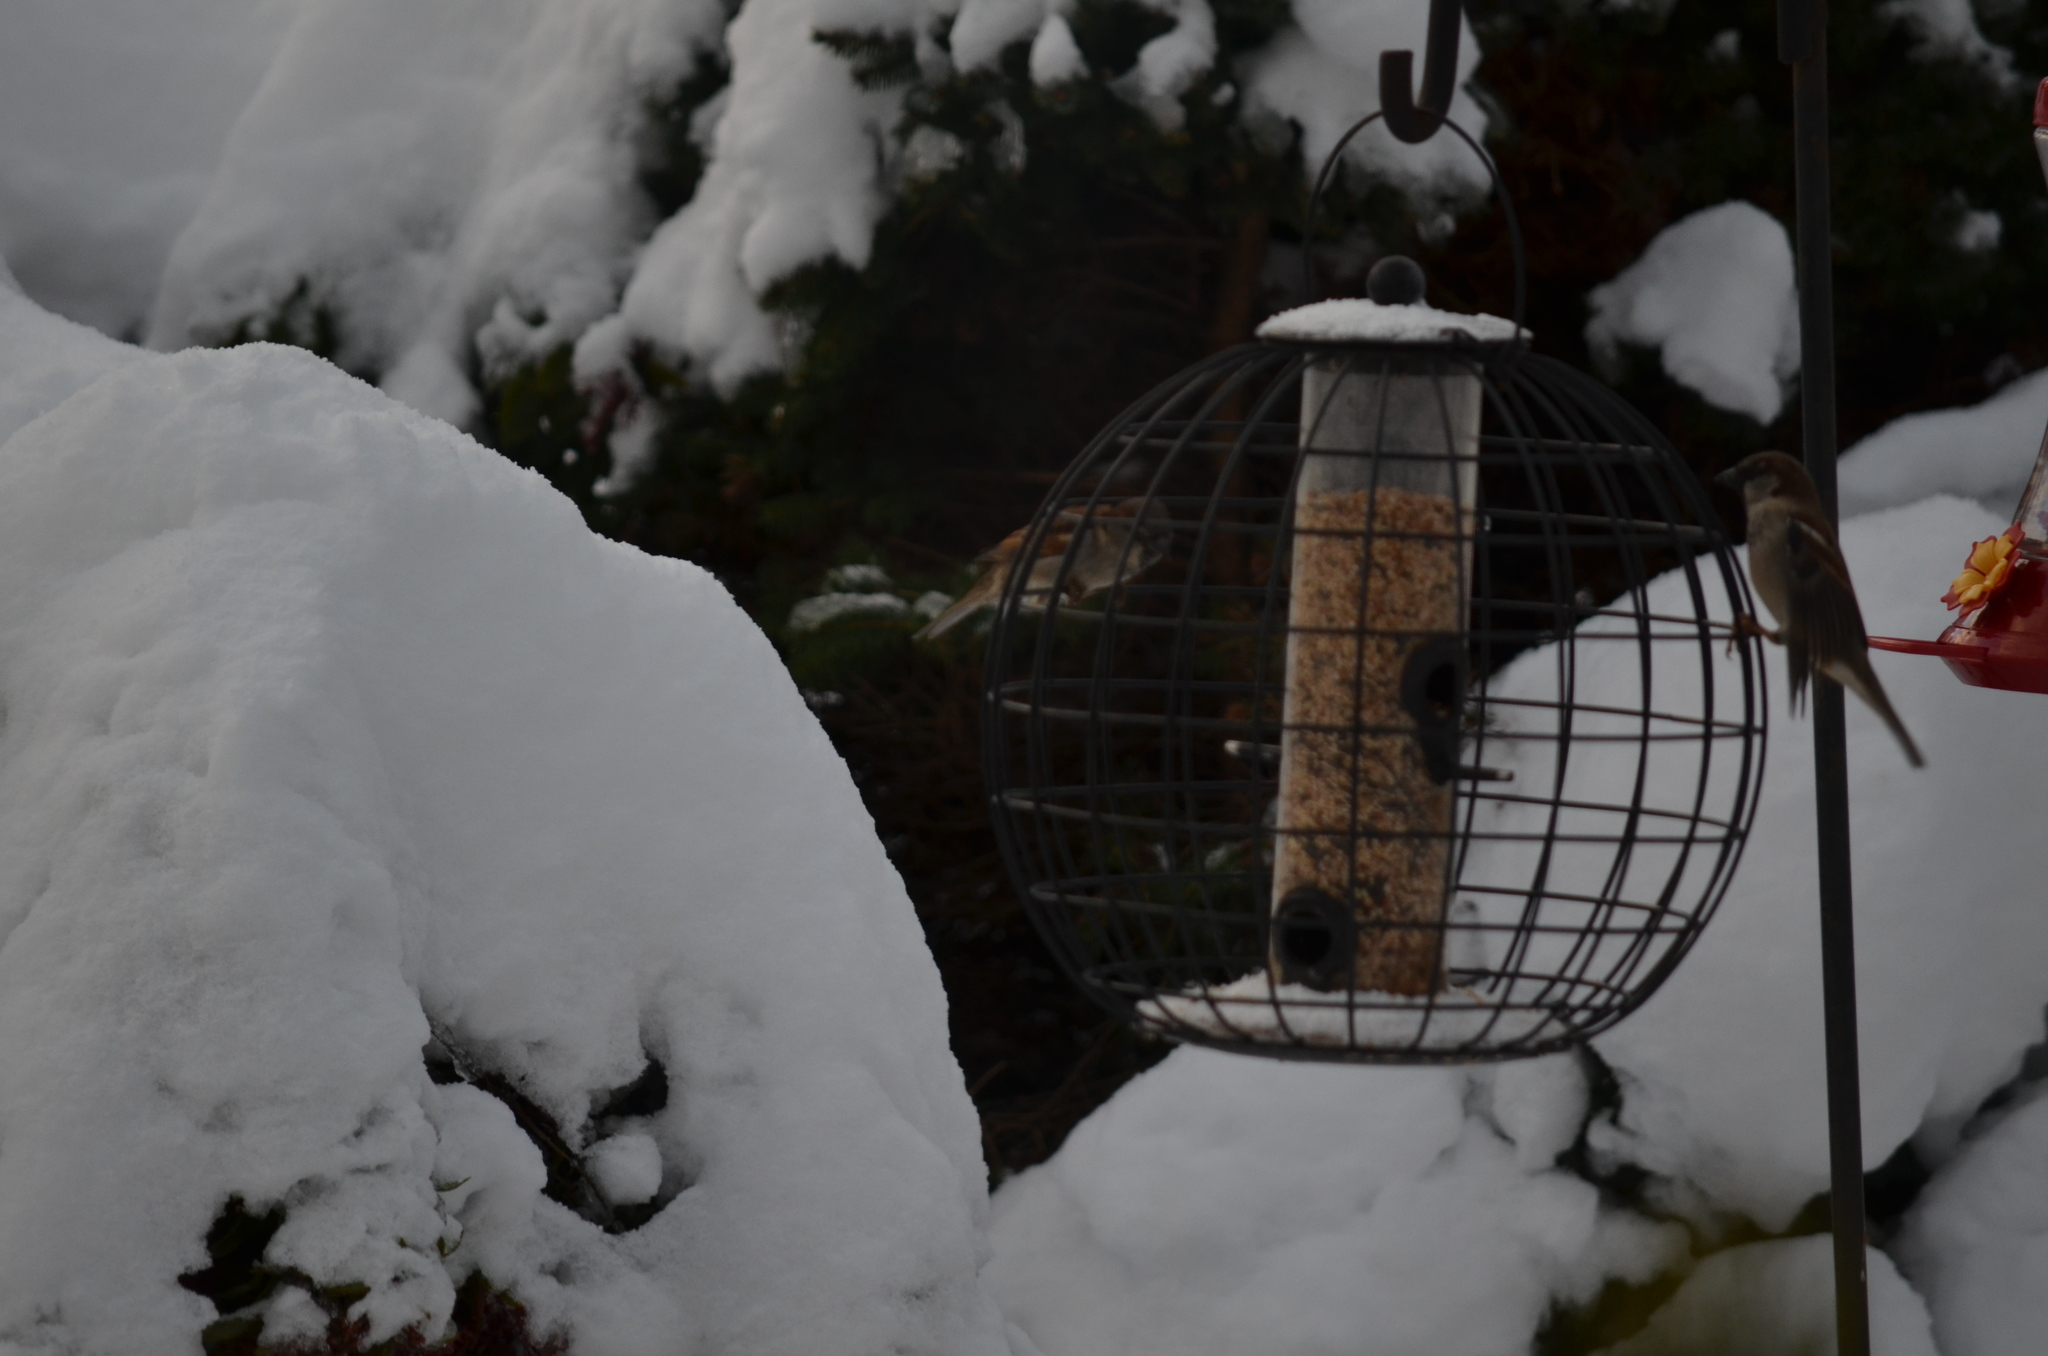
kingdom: Animalia
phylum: Chordata
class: Aves
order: Passeriformes
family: Passeridae
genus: Passer
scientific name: Passer domesticus
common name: House sparrow
